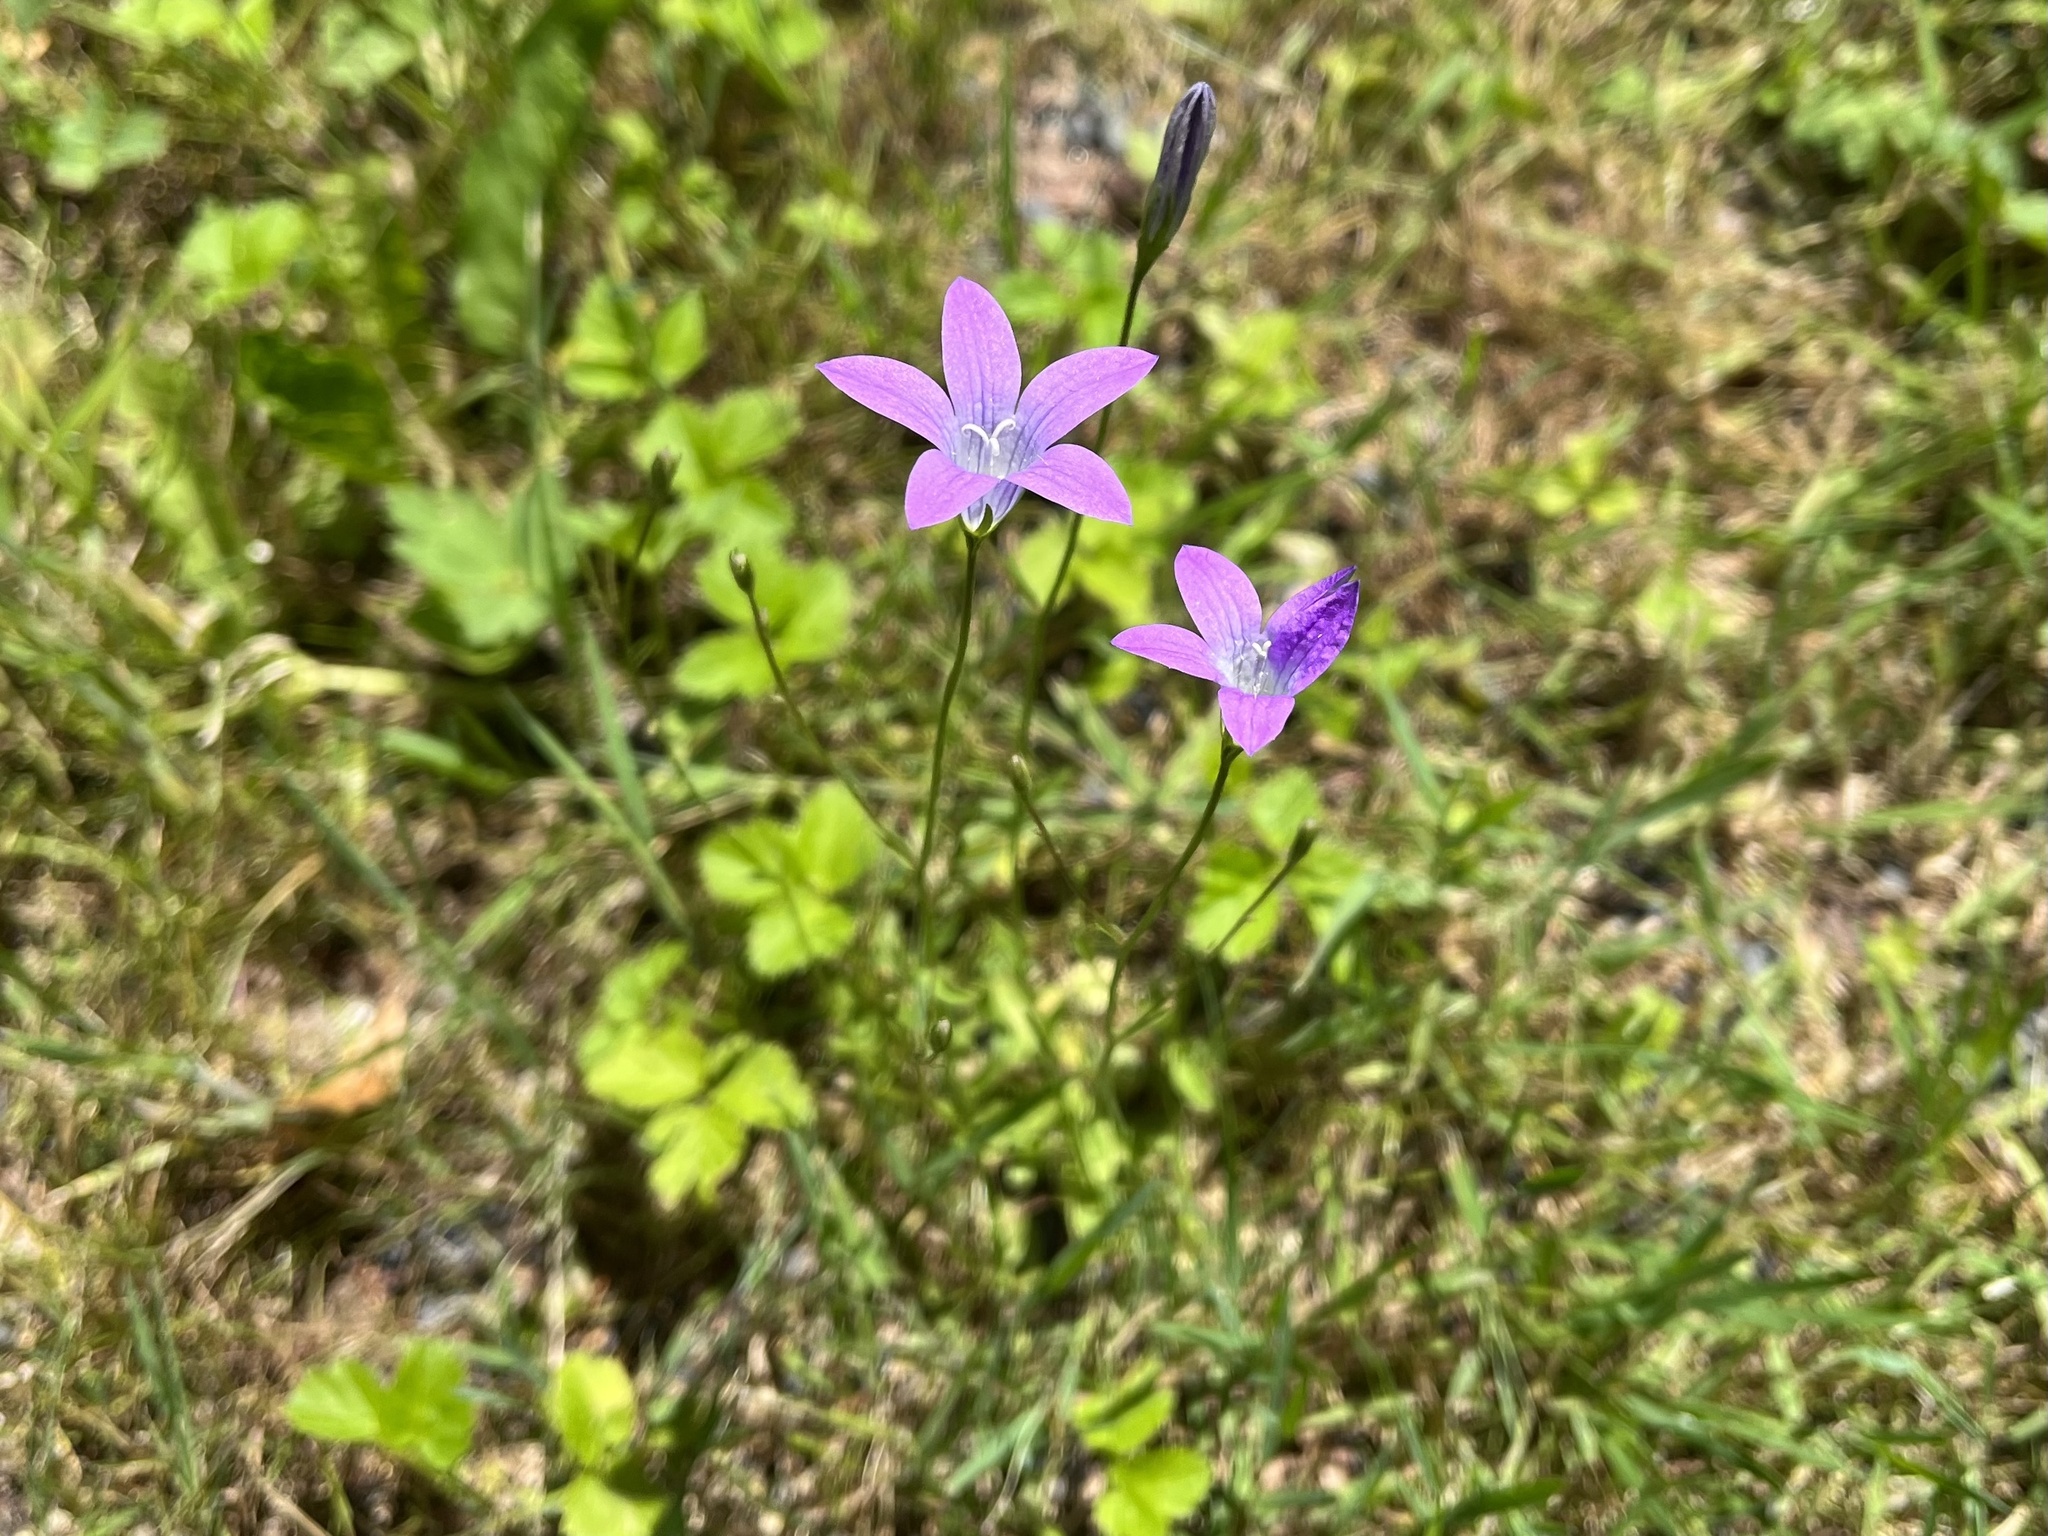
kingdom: Plantae
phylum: Tracheophyta
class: Magnoliopsida
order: Asterales
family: Campanulaceae
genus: Campanula
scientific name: Campanula patula
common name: Spreading bellflower
